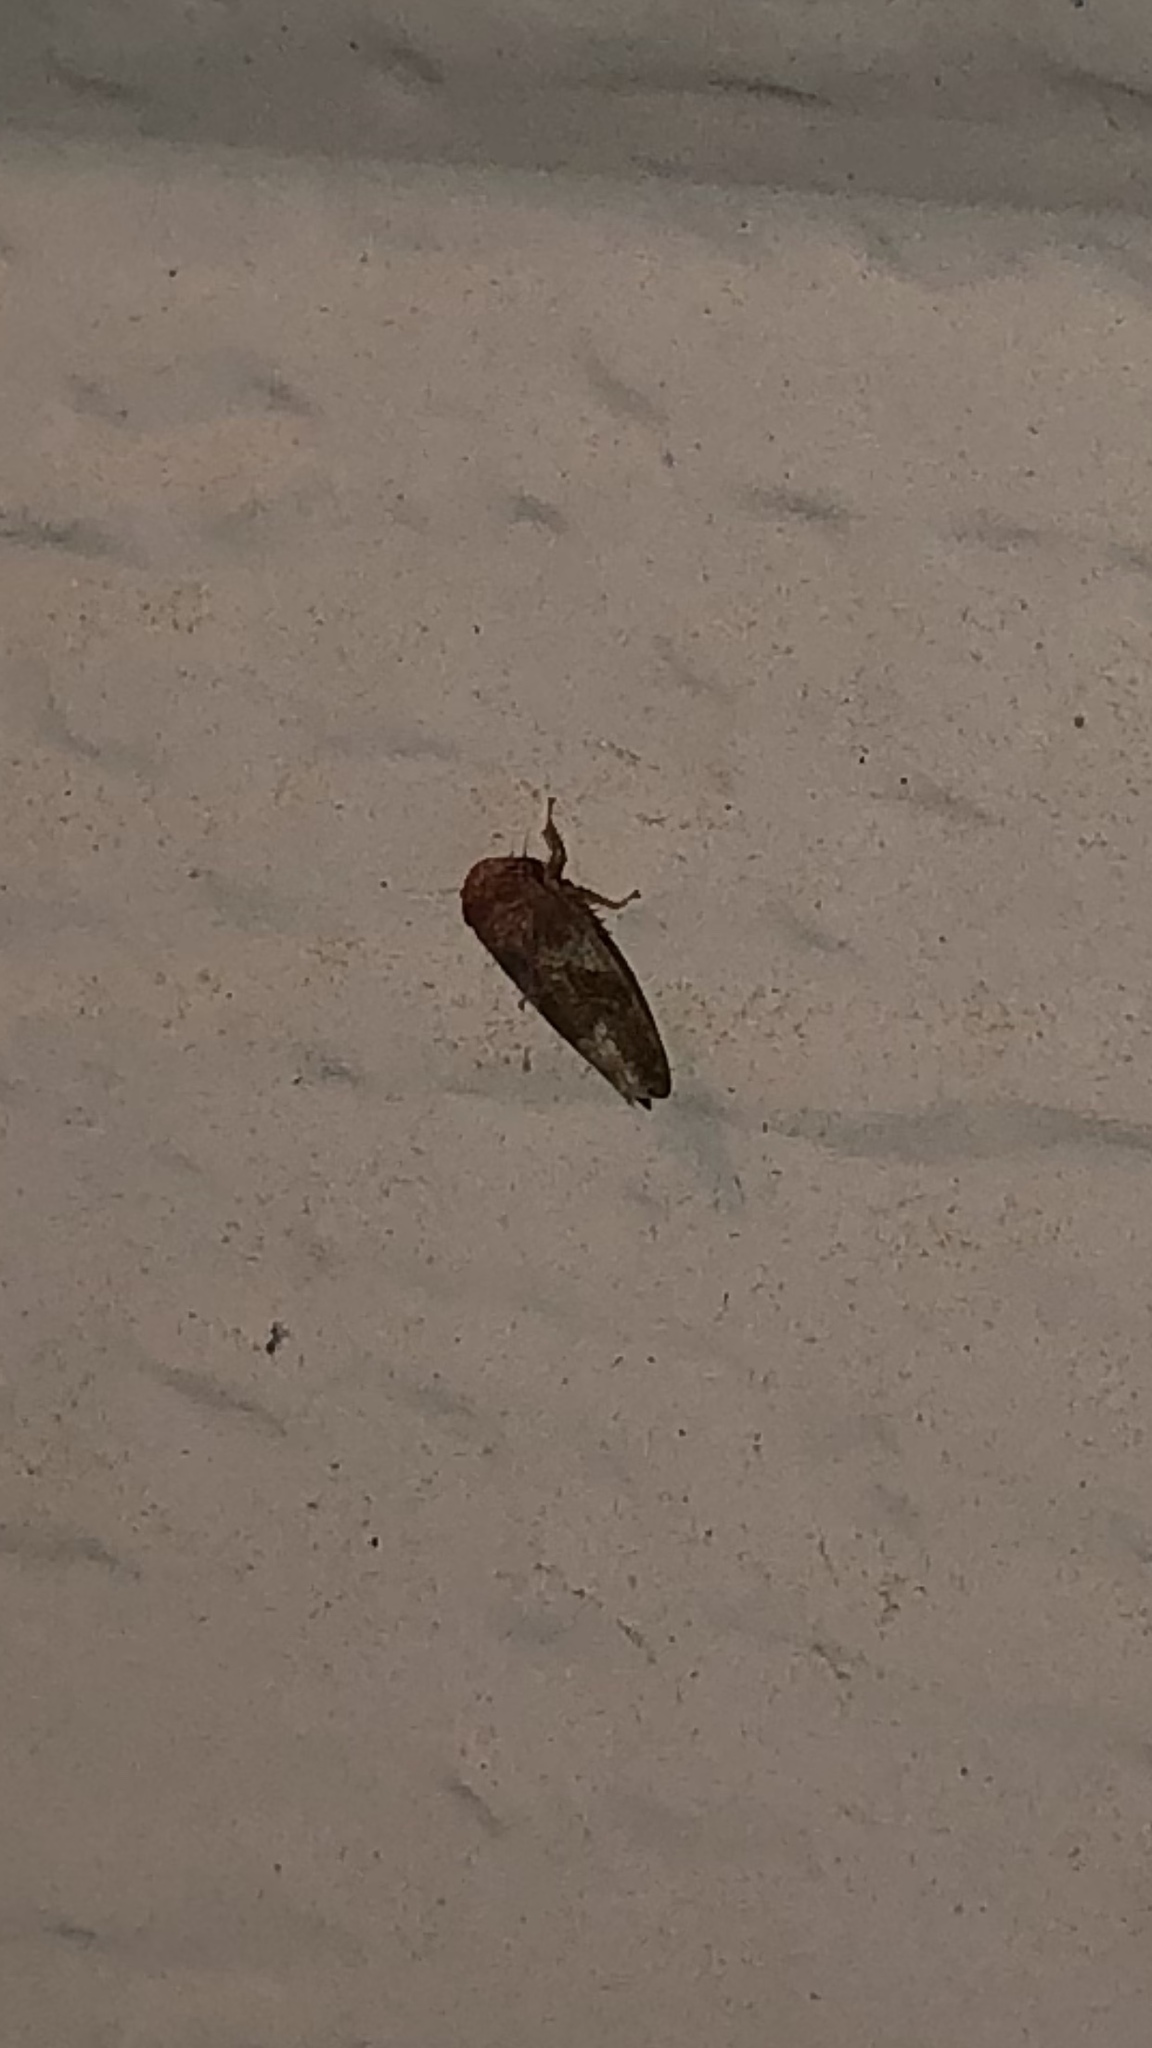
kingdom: Animalia
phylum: Arthropoda
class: Insecta
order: Hemiptera
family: Cicadellidae
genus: Norvellina
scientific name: Norvellina helenae
